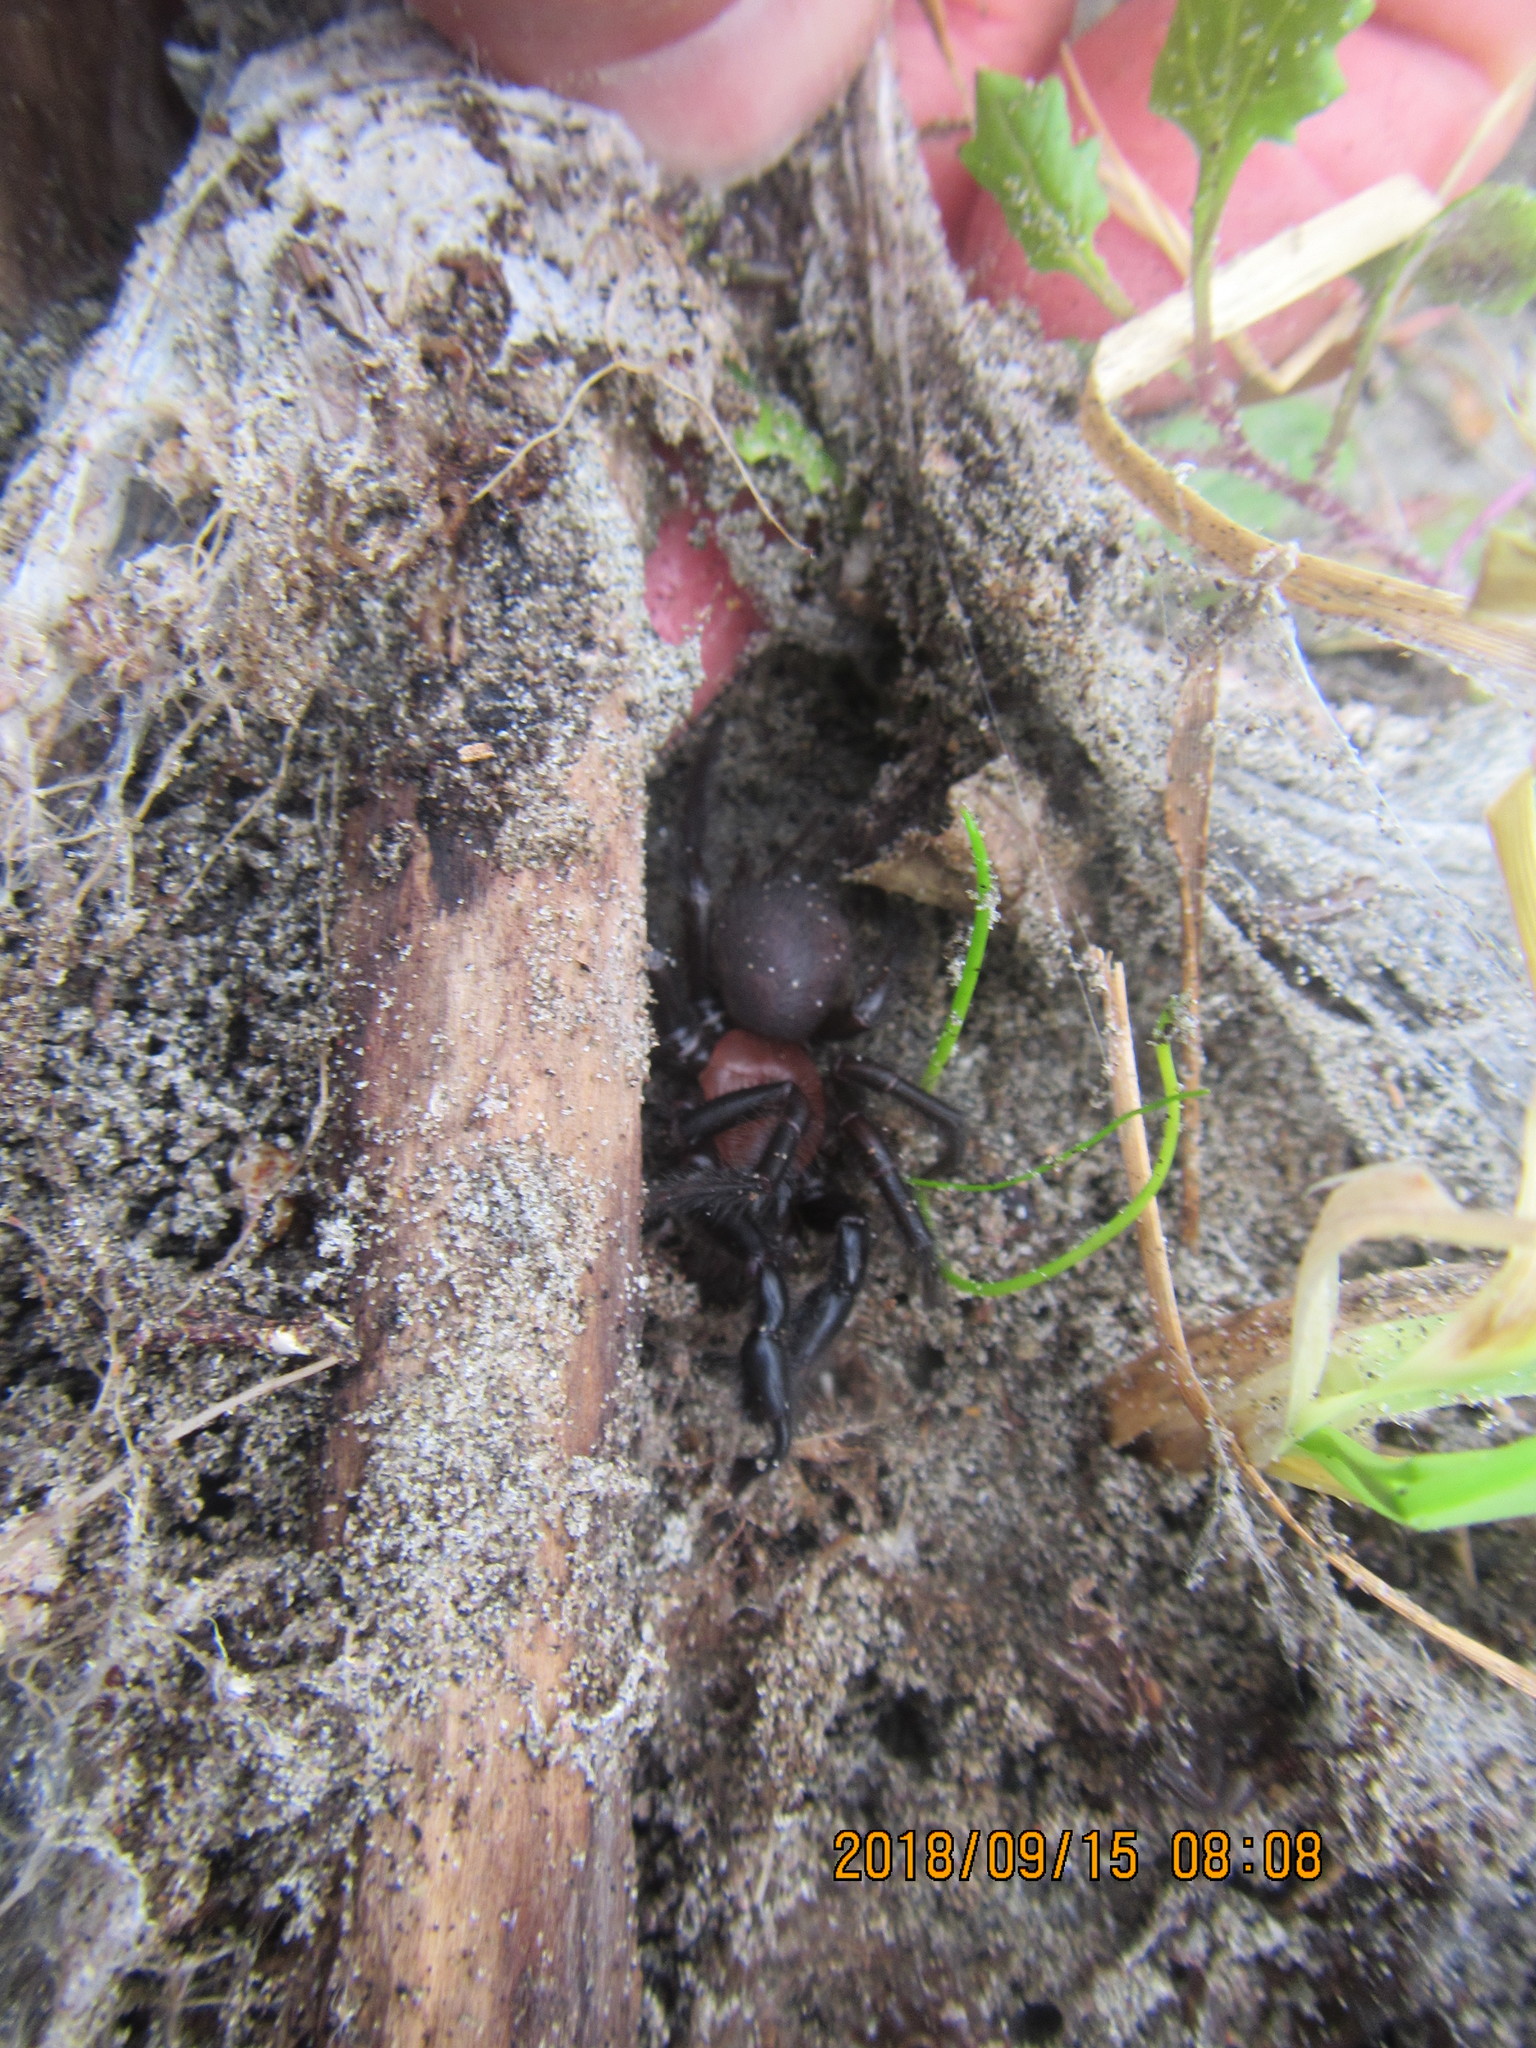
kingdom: Animalia
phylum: Arthropoda
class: Arachnida
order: Araneae
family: Porrhothelidae
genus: Porrhothele
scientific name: Porrhothele antipodiana
